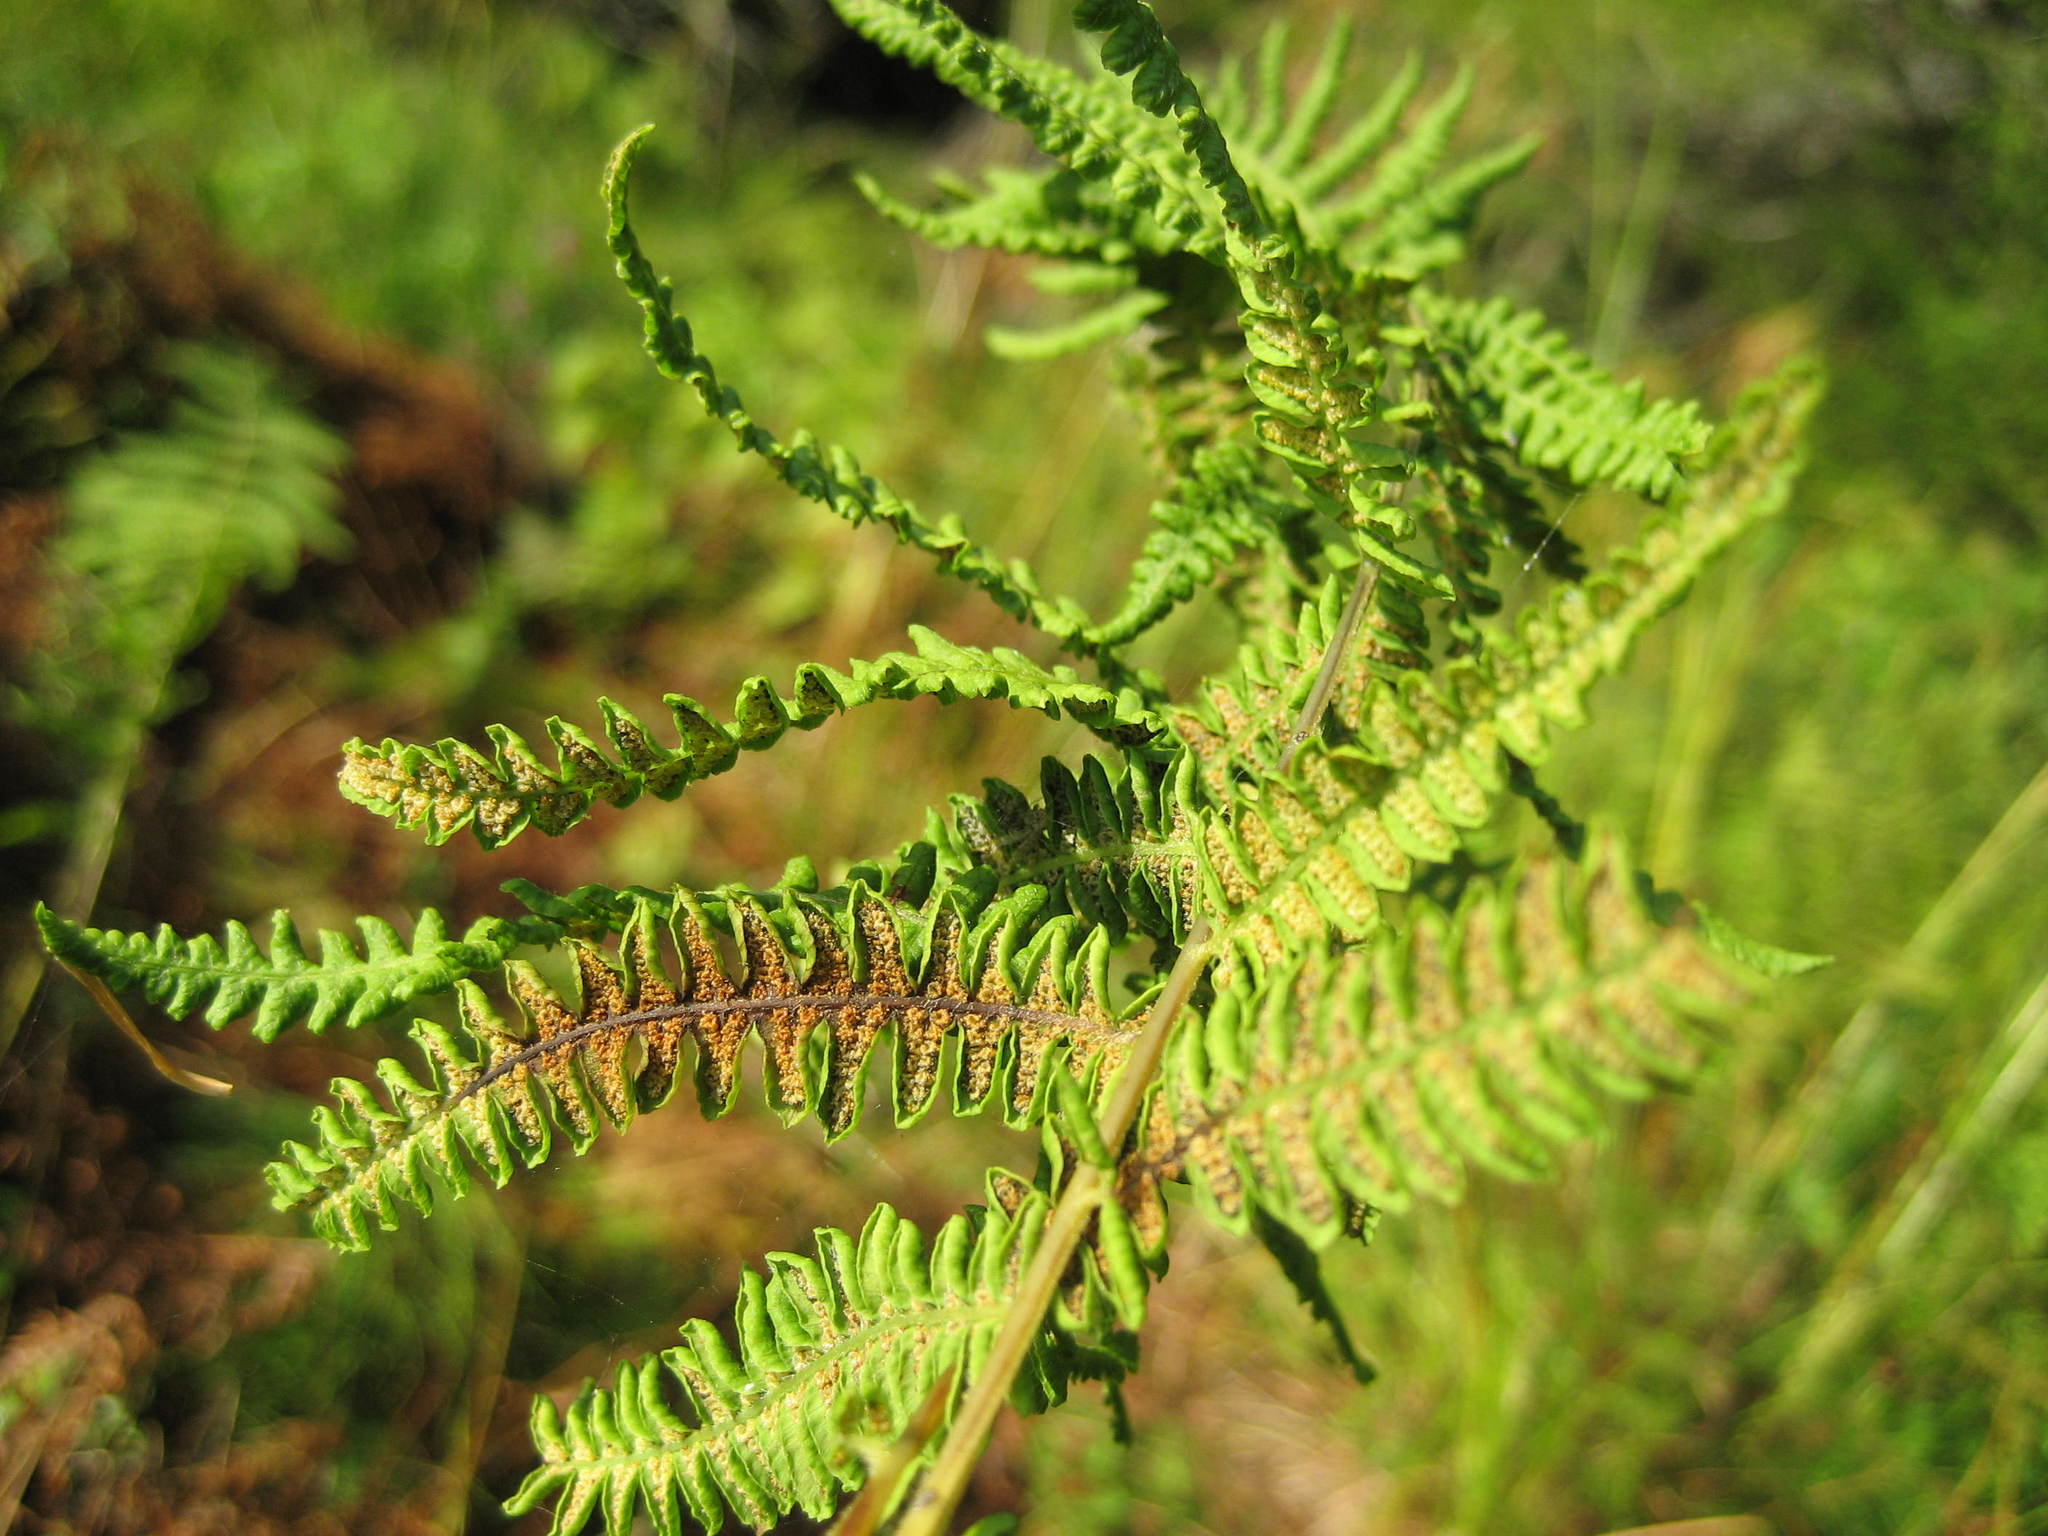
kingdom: Plantae
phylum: Tracheophyta
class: Polypodiopsida
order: Polypodiales
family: Thelypteridaceae
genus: Thelypteris
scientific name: Thelypteris palustris
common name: Marsh fern
